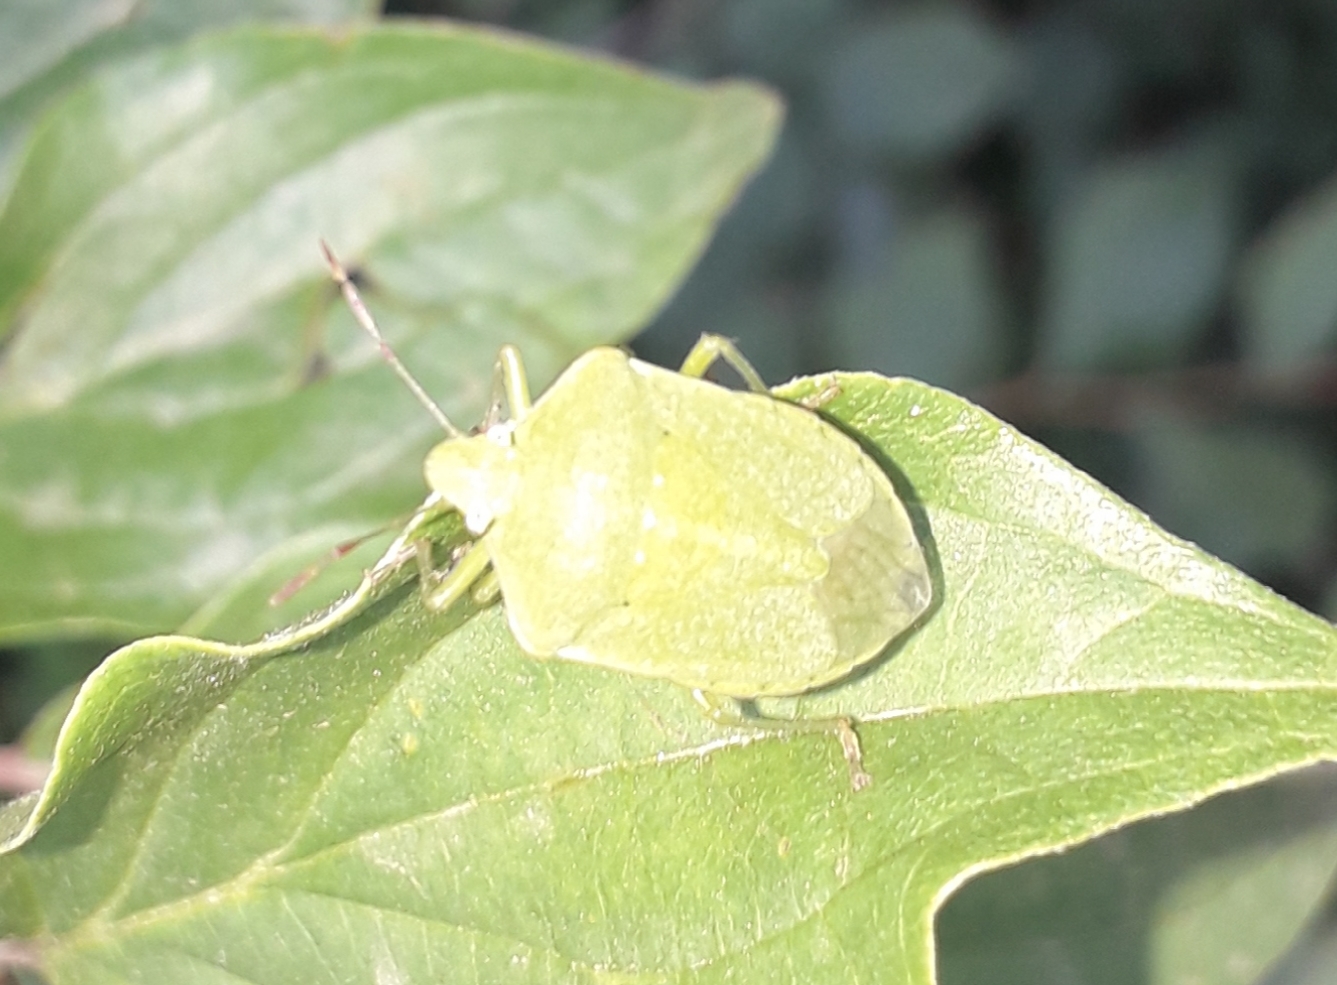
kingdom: Animalia
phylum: Arthropoda
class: Insecta
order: Hemiptera
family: Pentatomidae
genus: Nezara
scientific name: Nezara viridula
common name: Southern green stink bug
